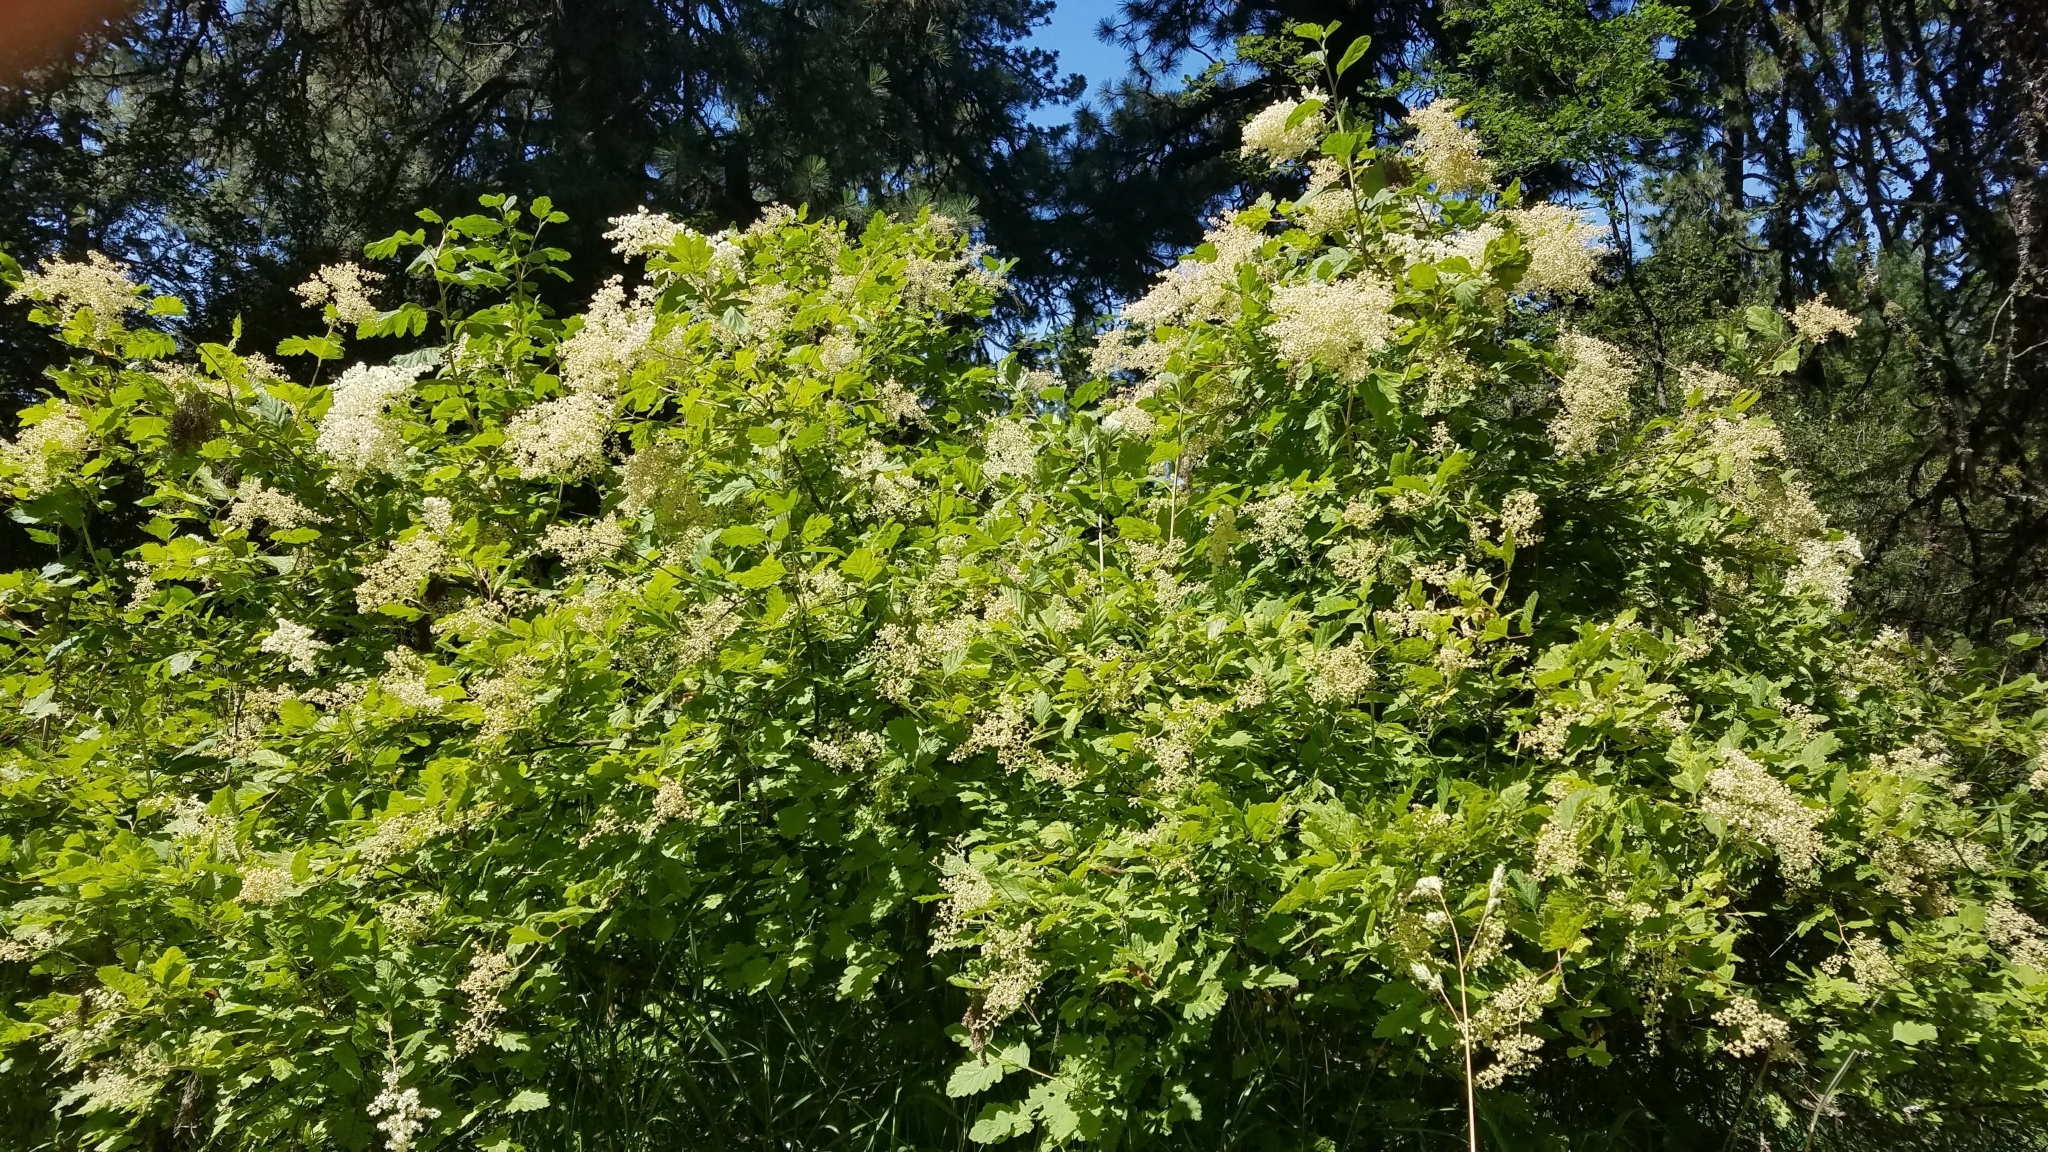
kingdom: Plantae
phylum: Tracheophyta
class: Magnoliopsida
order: Rosales
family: Rosaceae
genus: Holodiscus
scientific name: Holodiscus discolor
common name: Oceanspray
